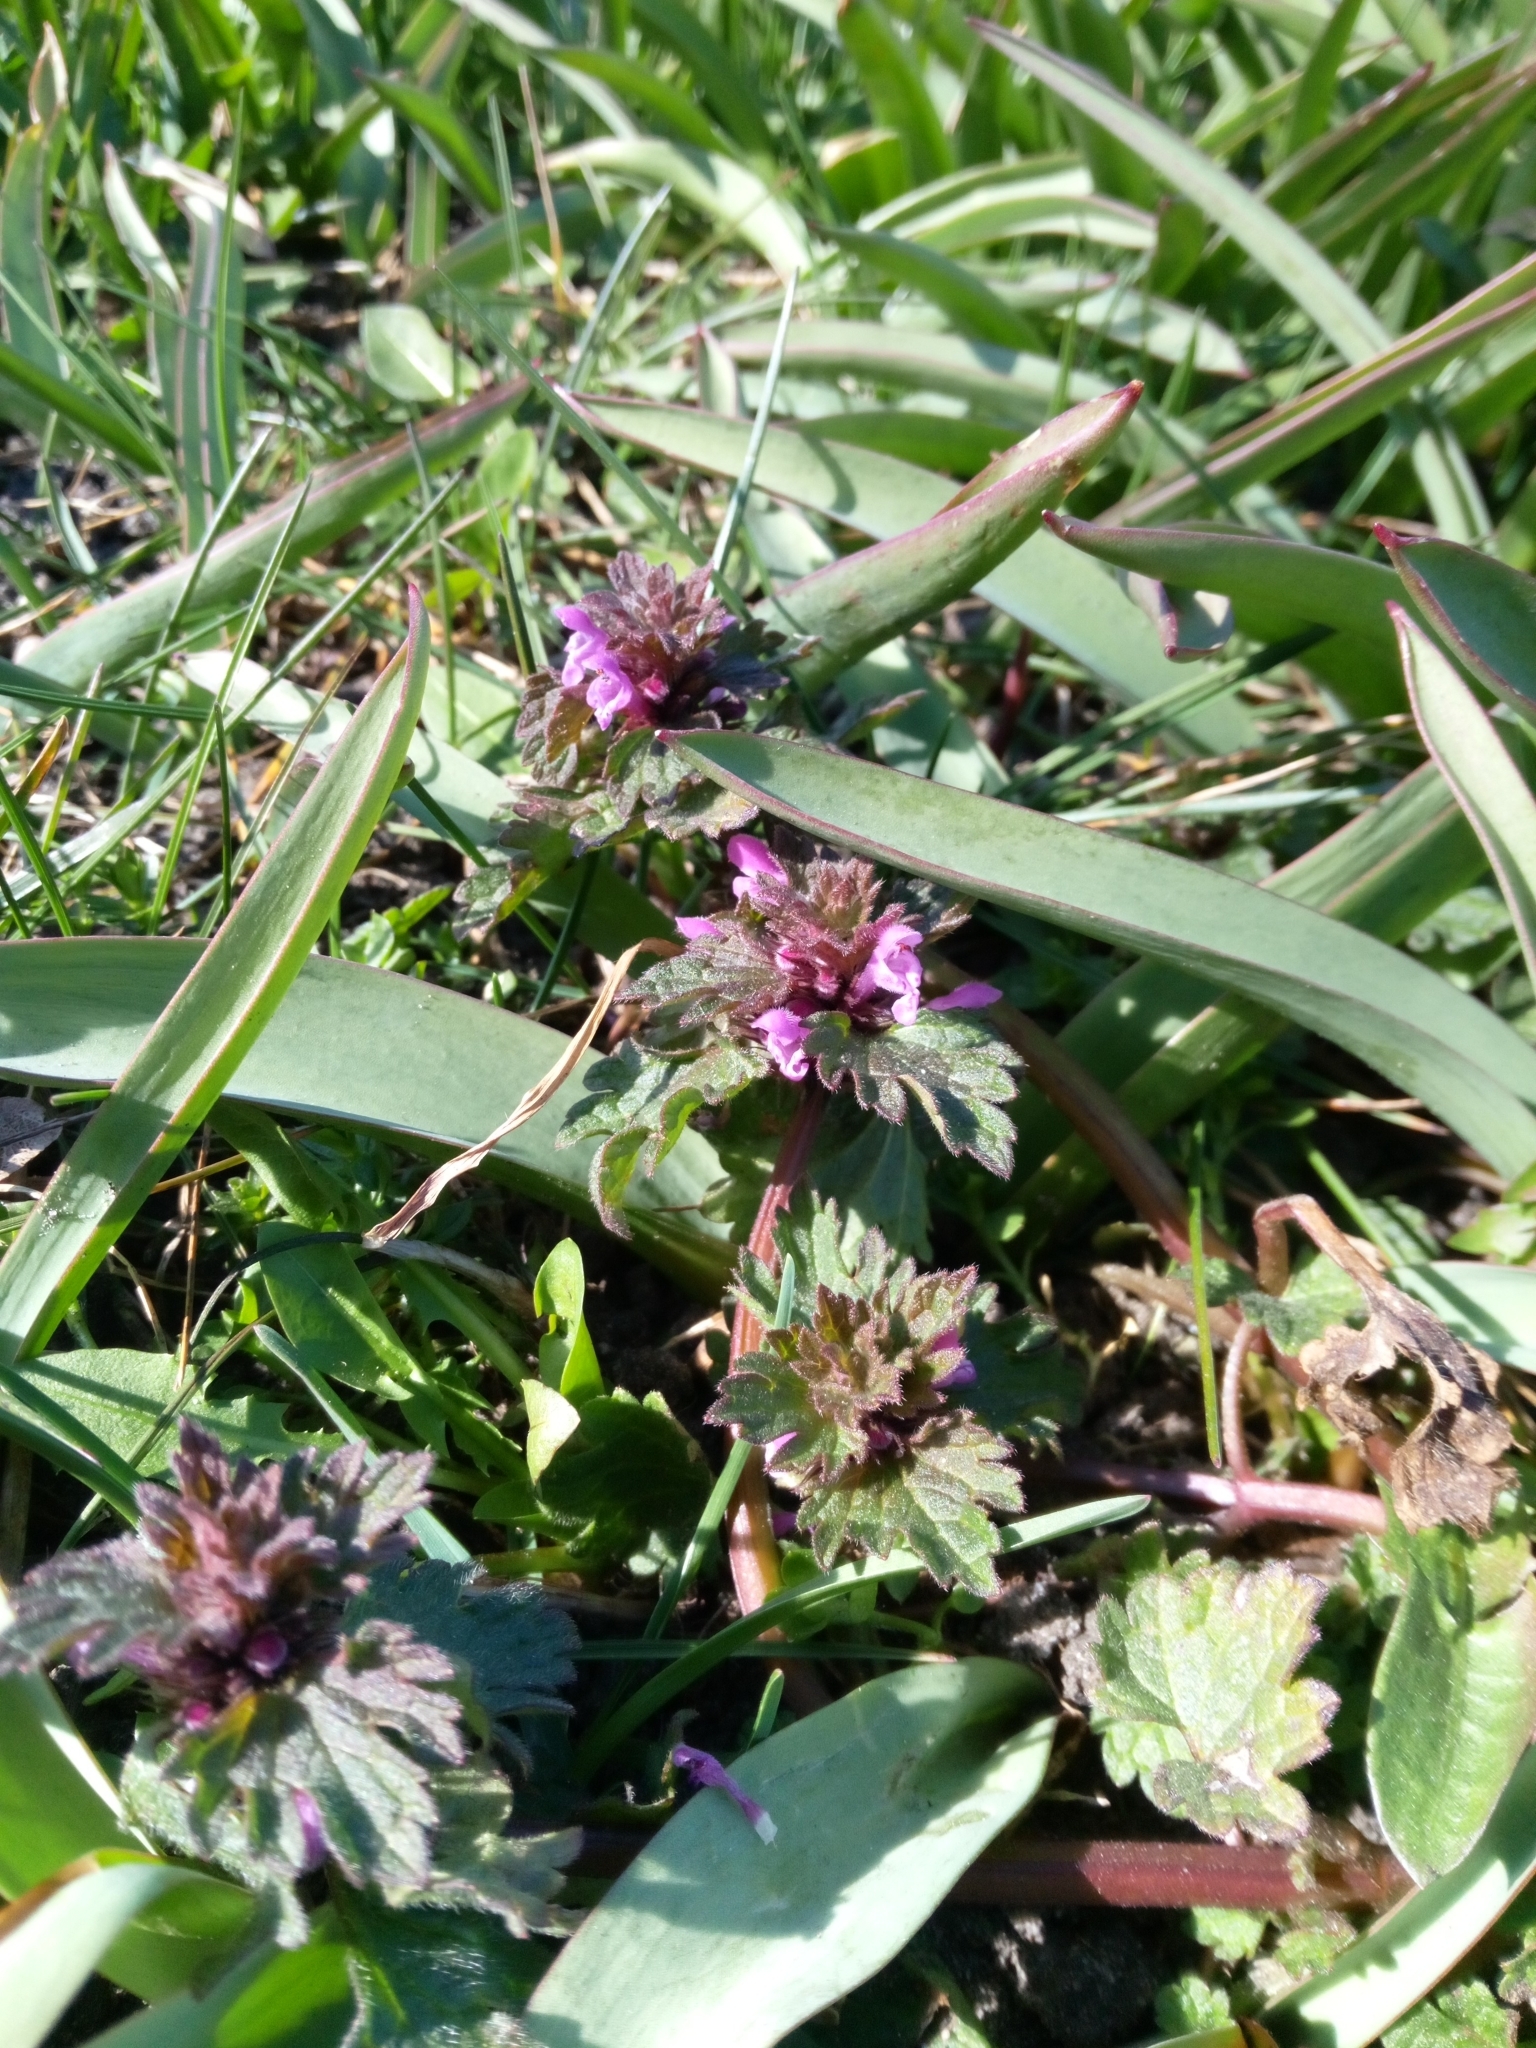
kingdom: Plantae
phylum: Tracheophyta
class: Magnoliopsida
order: Lamiales
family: Lamiaceae
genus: Lamium
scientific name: Lamium hybridum
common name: Cut-leaved dead-nettle
